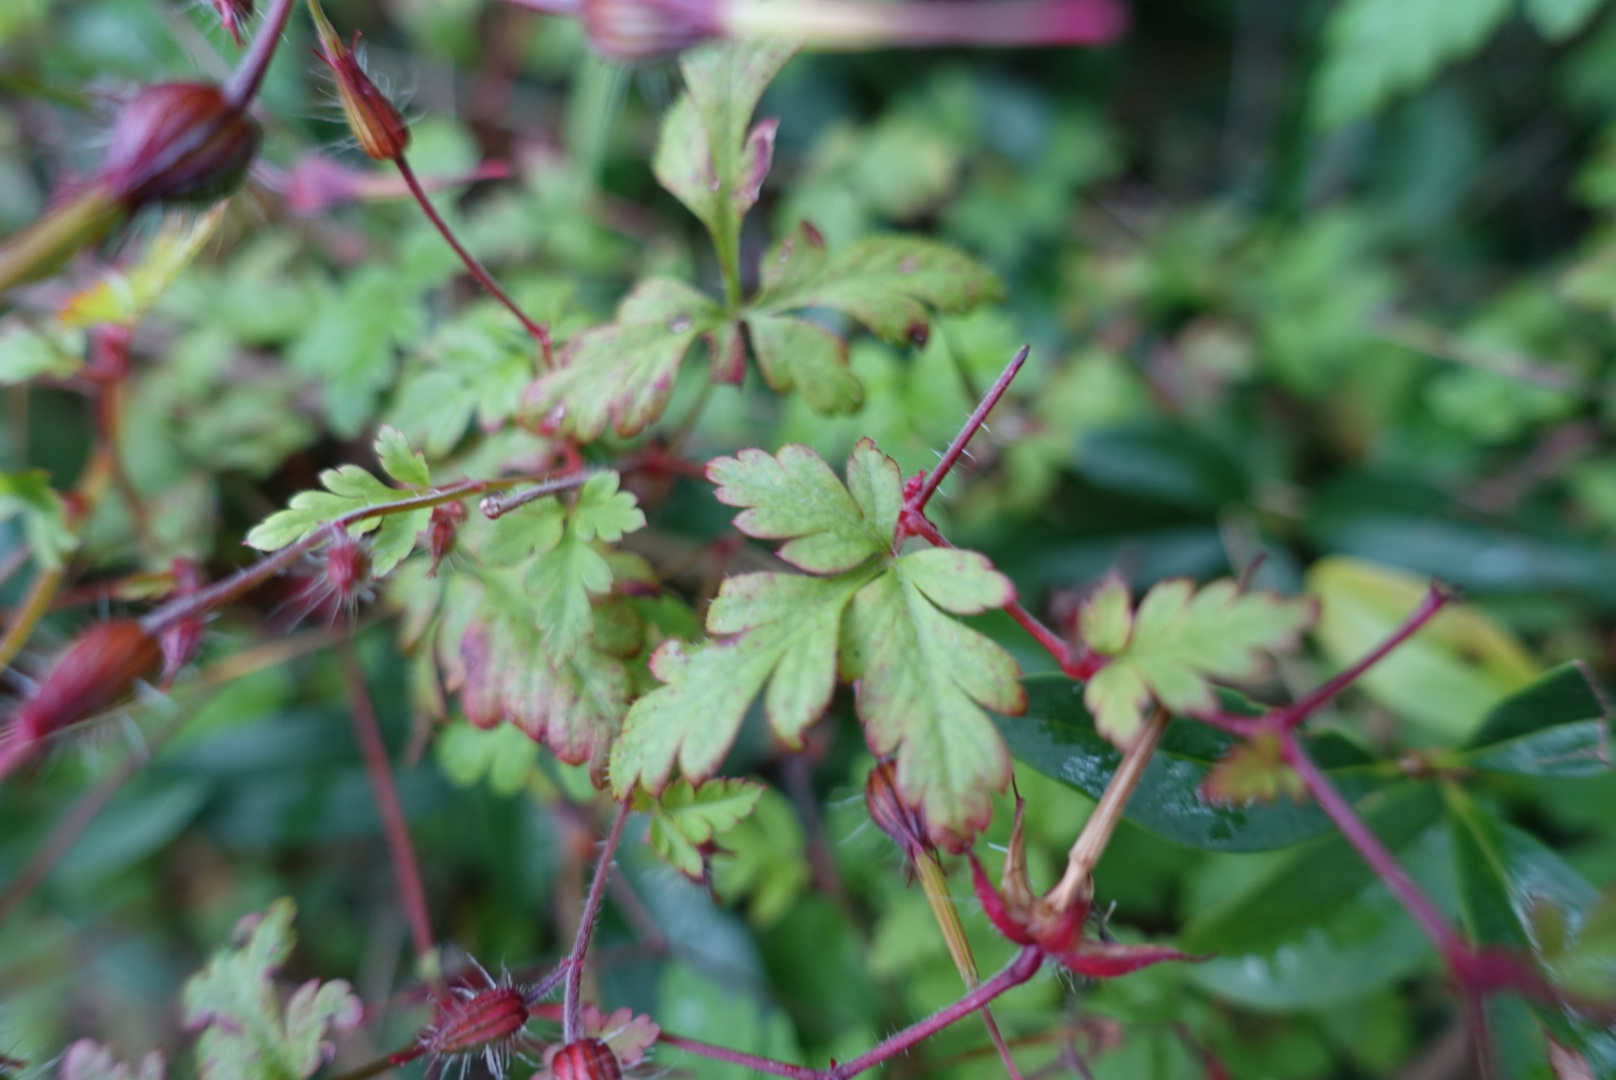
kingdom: Plantae
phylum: Tracheophyta
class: Magnoliopsida
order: Geraniales
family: Geraniaceae
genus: Geranium
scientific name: Geranium robertianum
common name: Herb-robert
